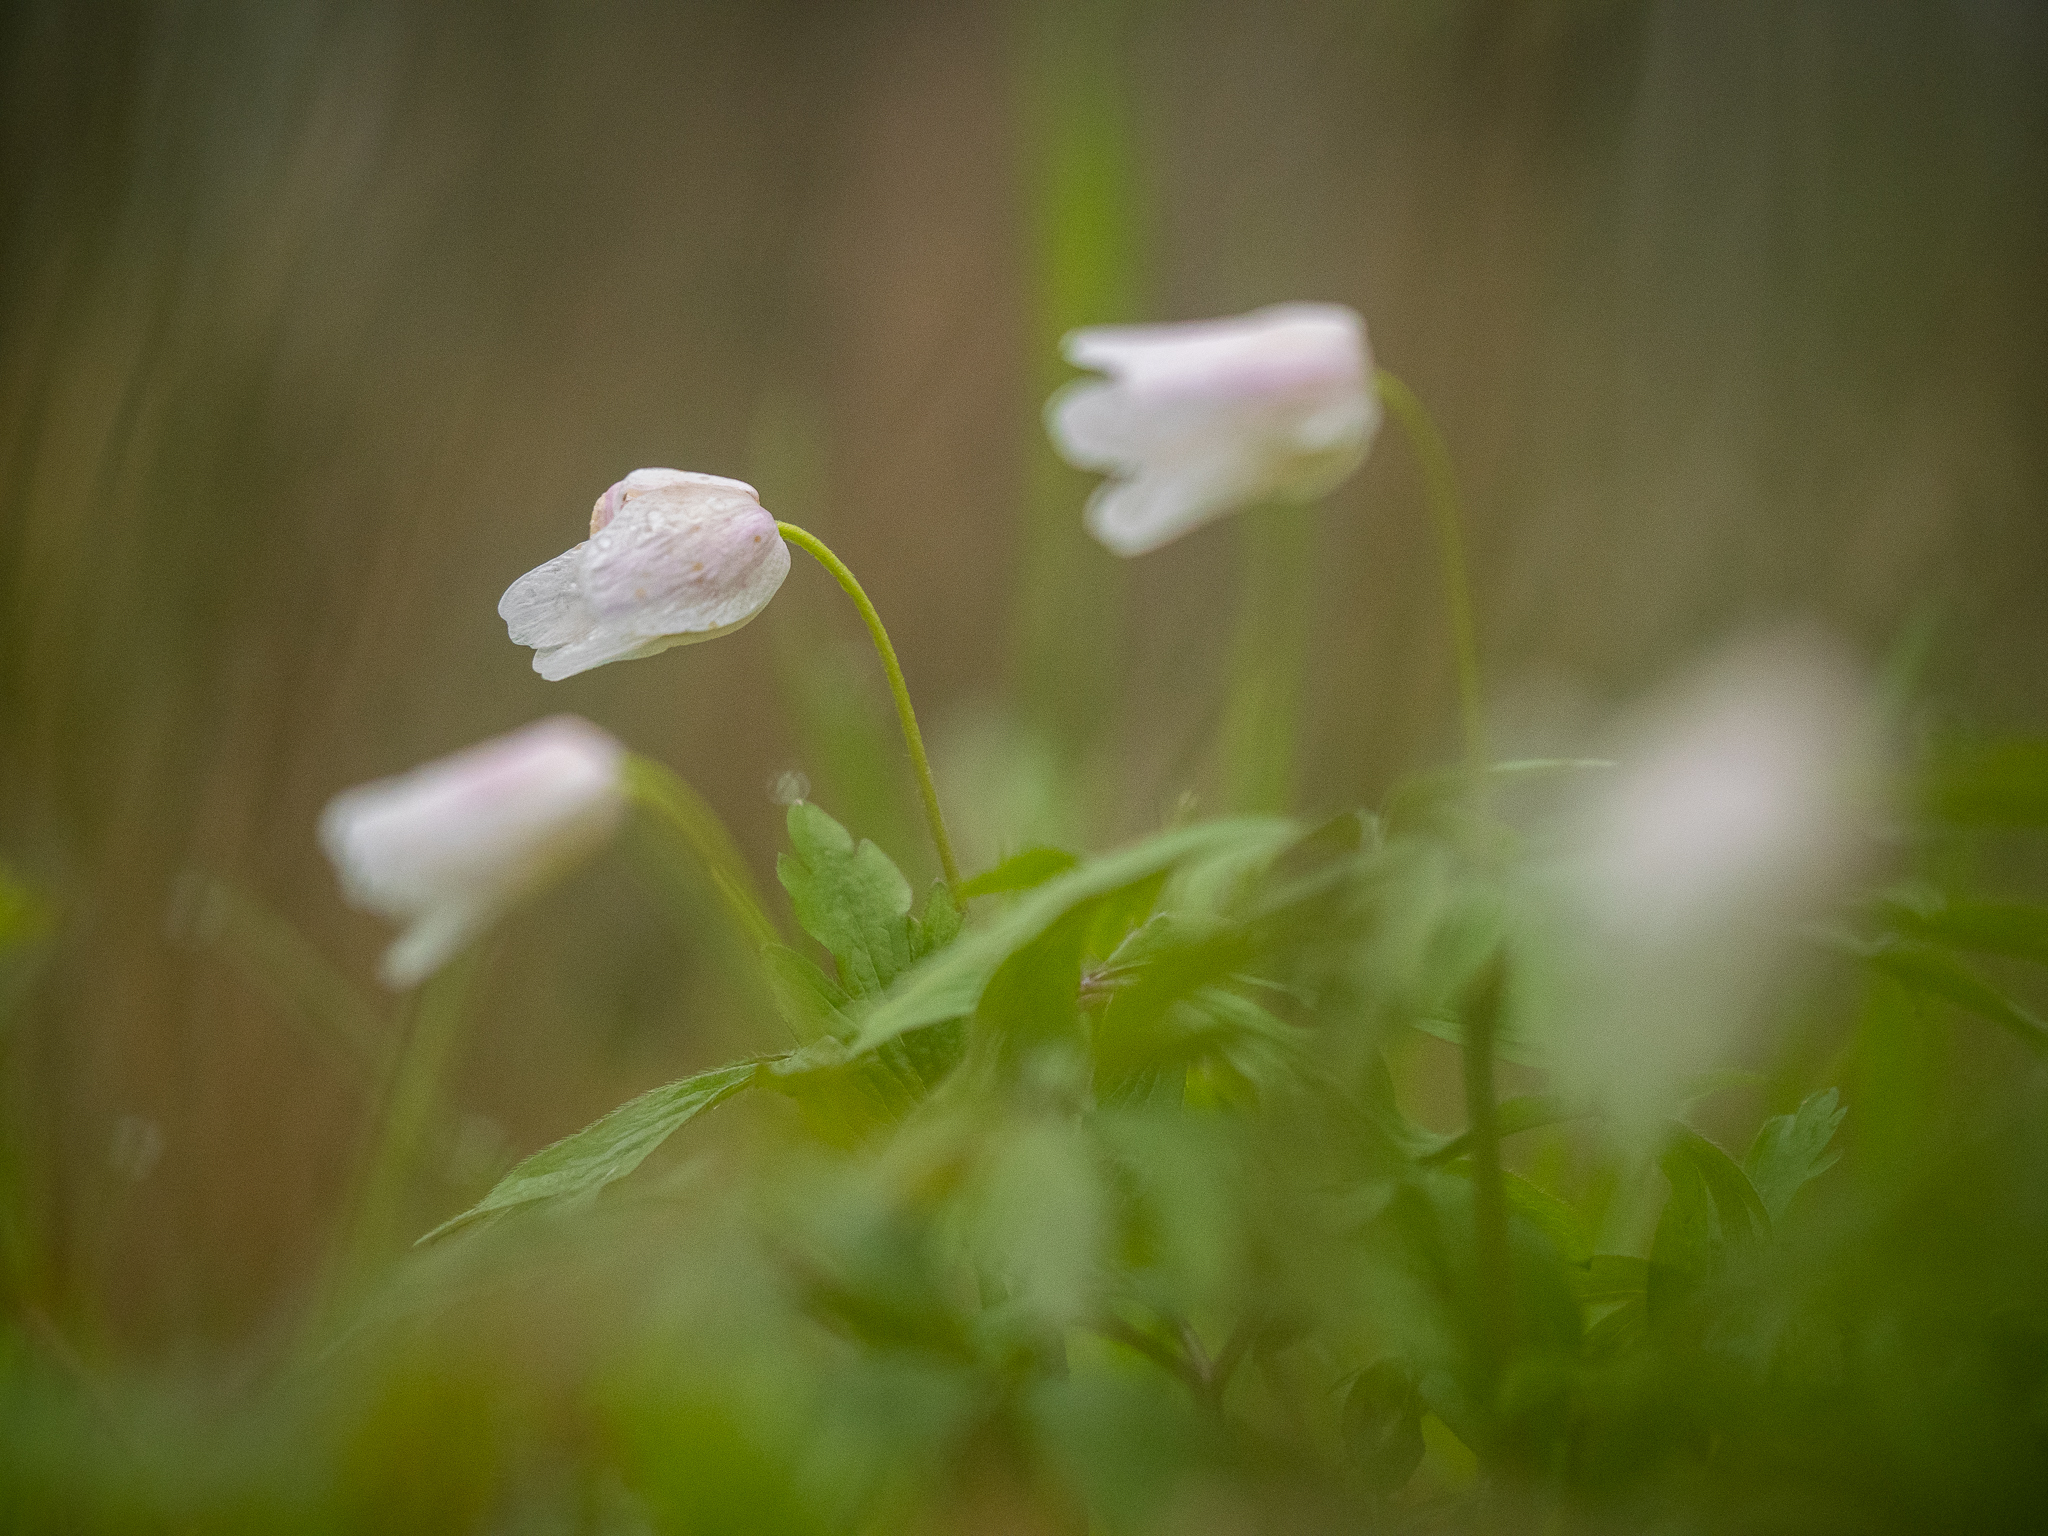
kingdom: Plantae
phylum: Tracheophyta
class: Magnoliopsida
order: Ranunculales
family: Ranunculaceae
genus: Anemone
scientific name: Anemone nemorosa
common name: Wood anemone
